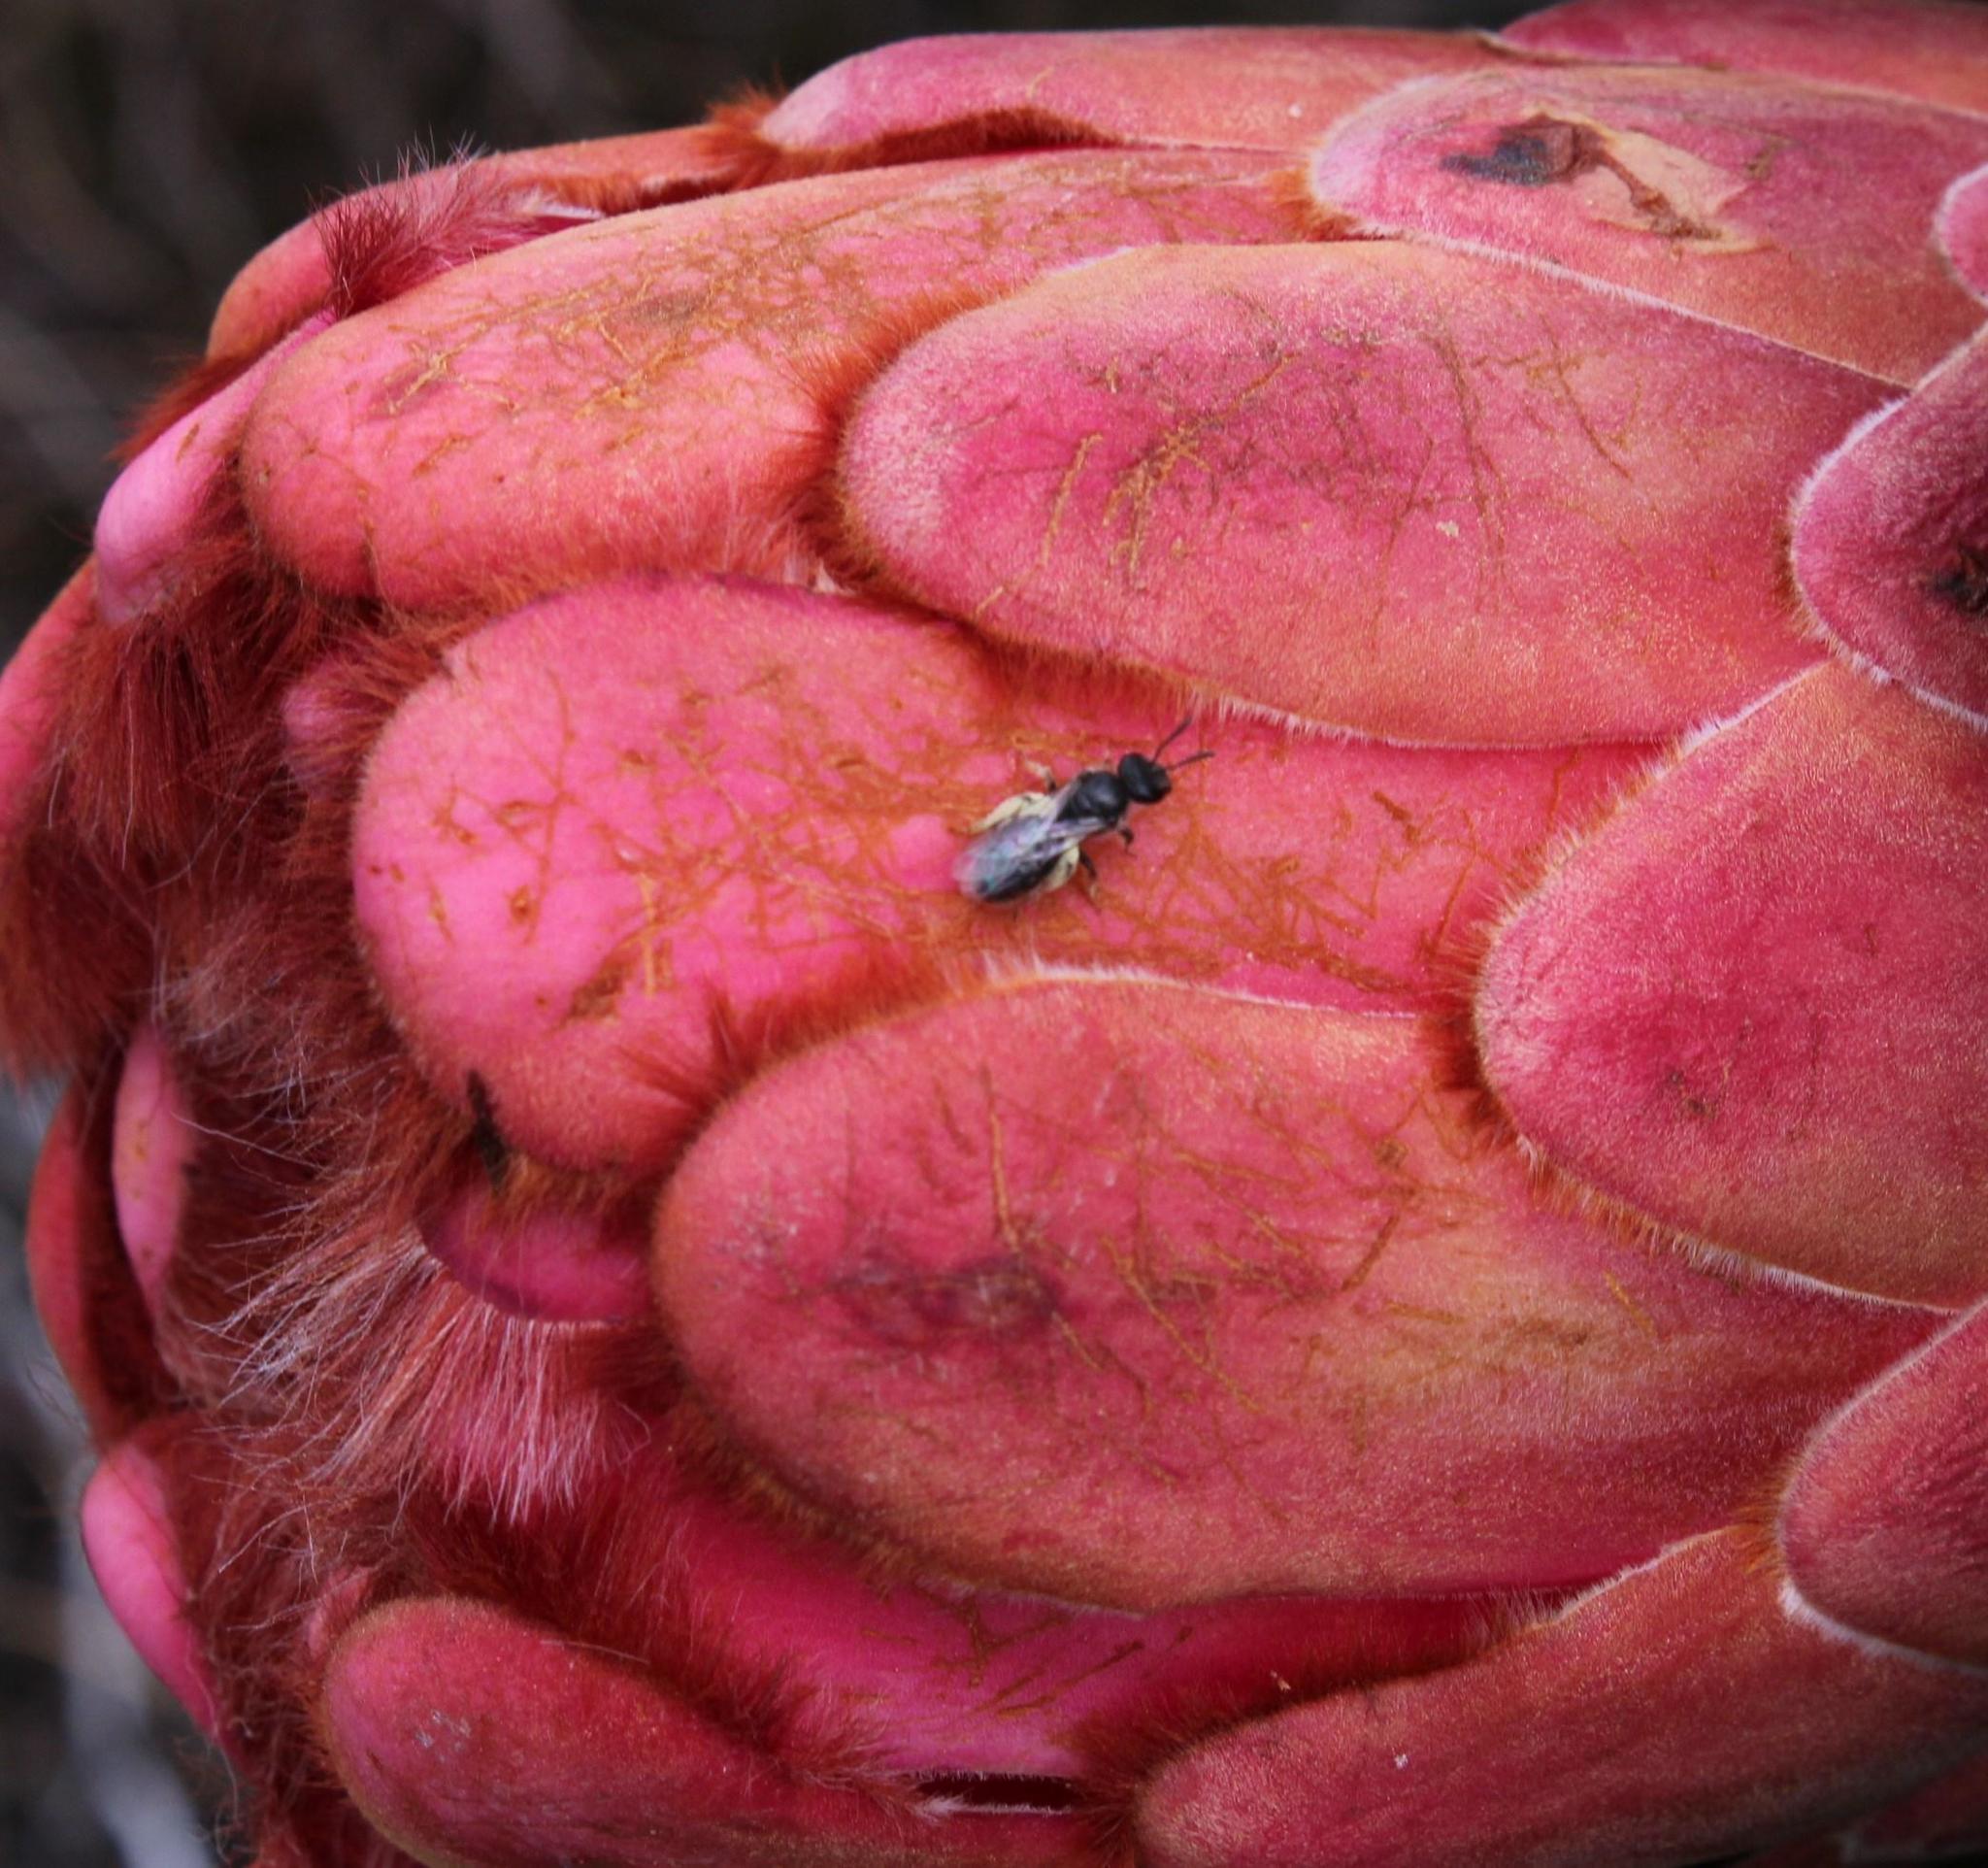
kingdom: Animalia
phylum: Chordata
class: Aves
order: Passeriformes
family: Promeropidae
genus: Promerops
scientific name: Promerops cafer
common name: Cape sugarbird
